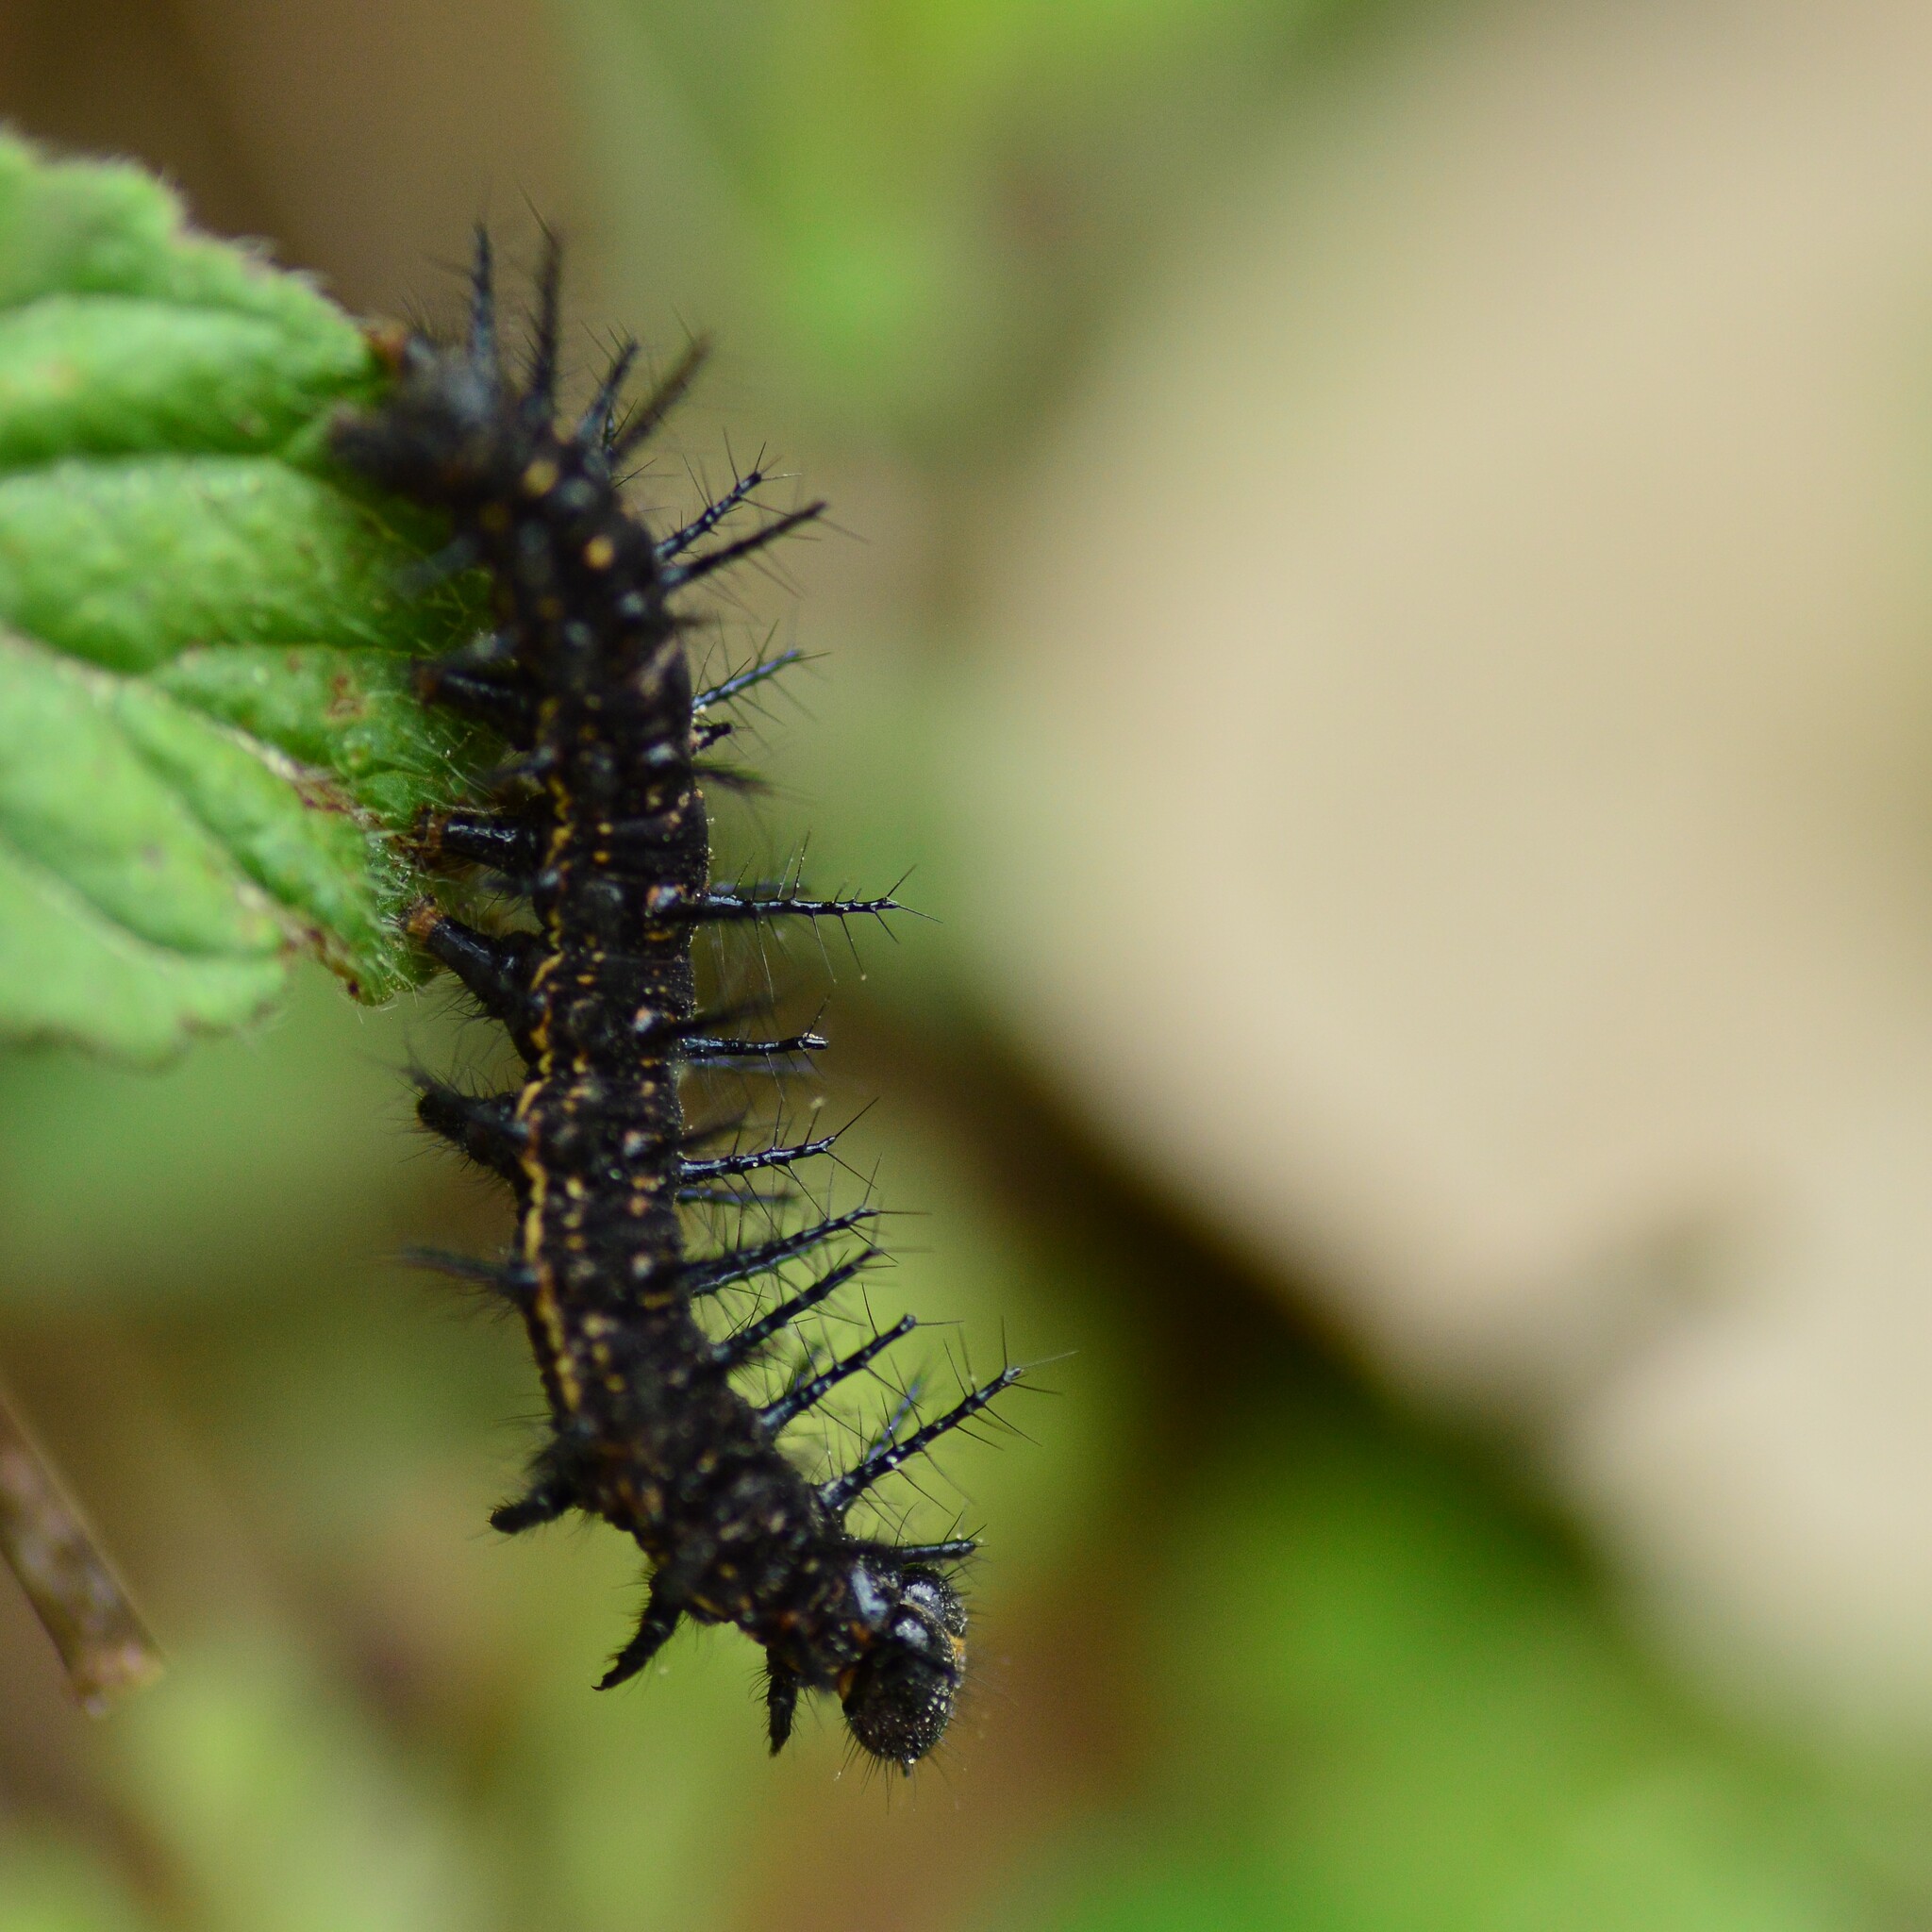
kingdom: Animalia
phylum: Arthropoda
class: Insecta
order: Lepidoptera
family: Nymphalidae
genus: Acraea
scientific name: Acraea Telchinia issoria
